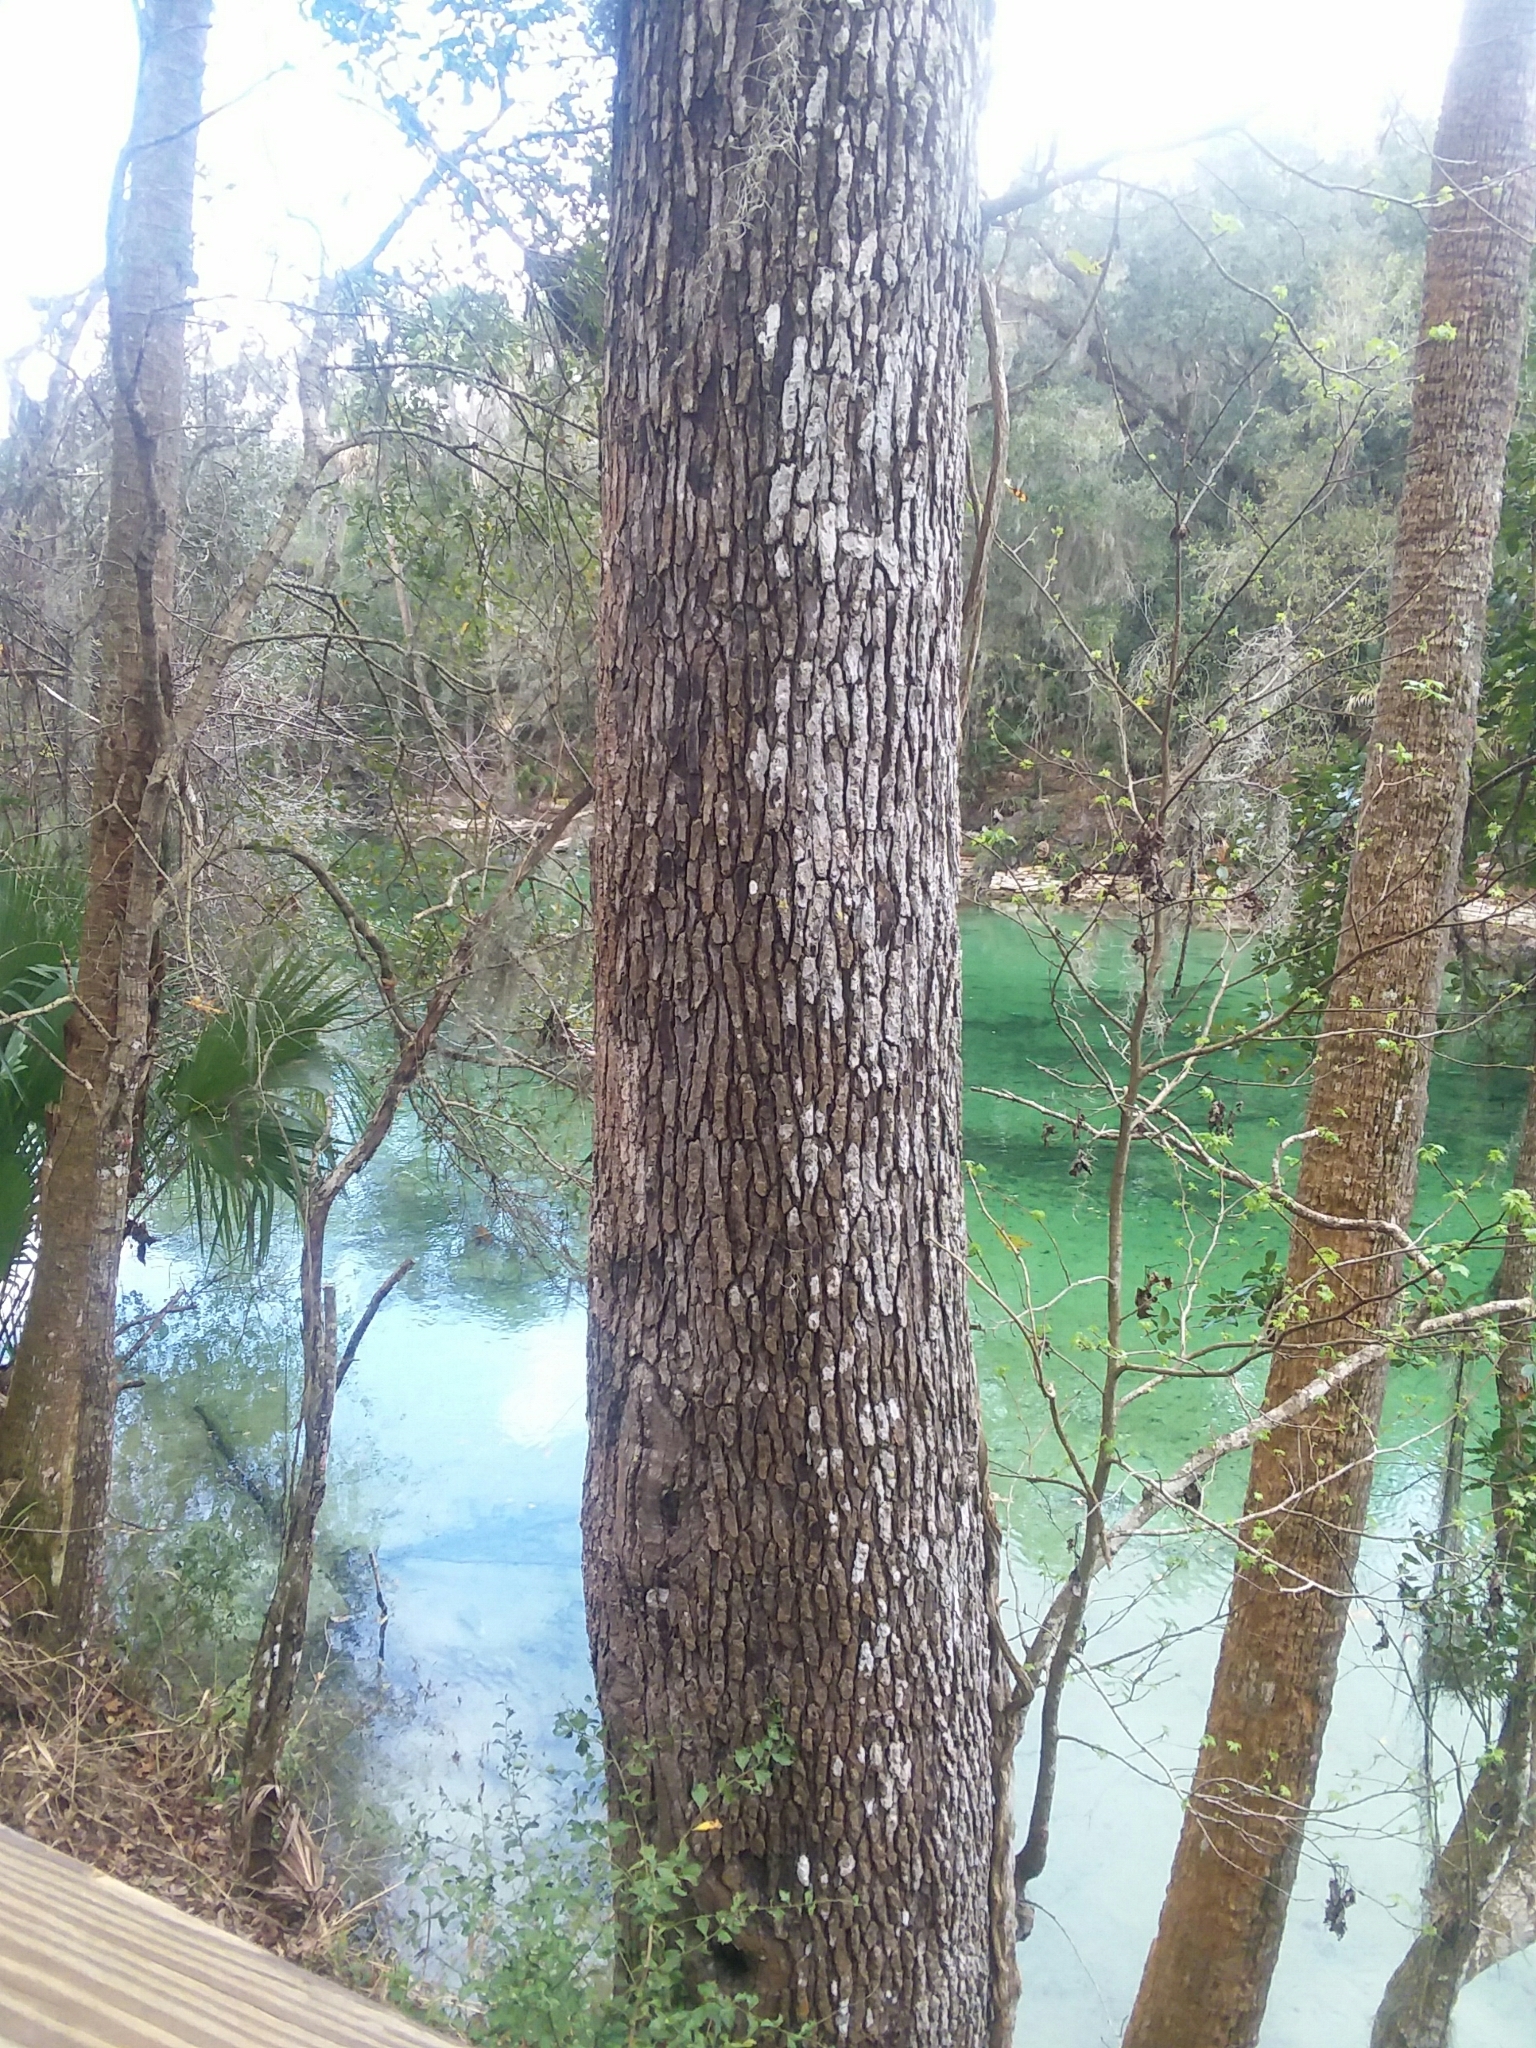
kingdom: Plantae
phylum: Tracheophyta
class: Magnoliopsida
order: Saxifragales
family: Altingiaceae
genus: Liquidambar
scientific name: Liquidambar styraciflua
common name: Sweet gum
